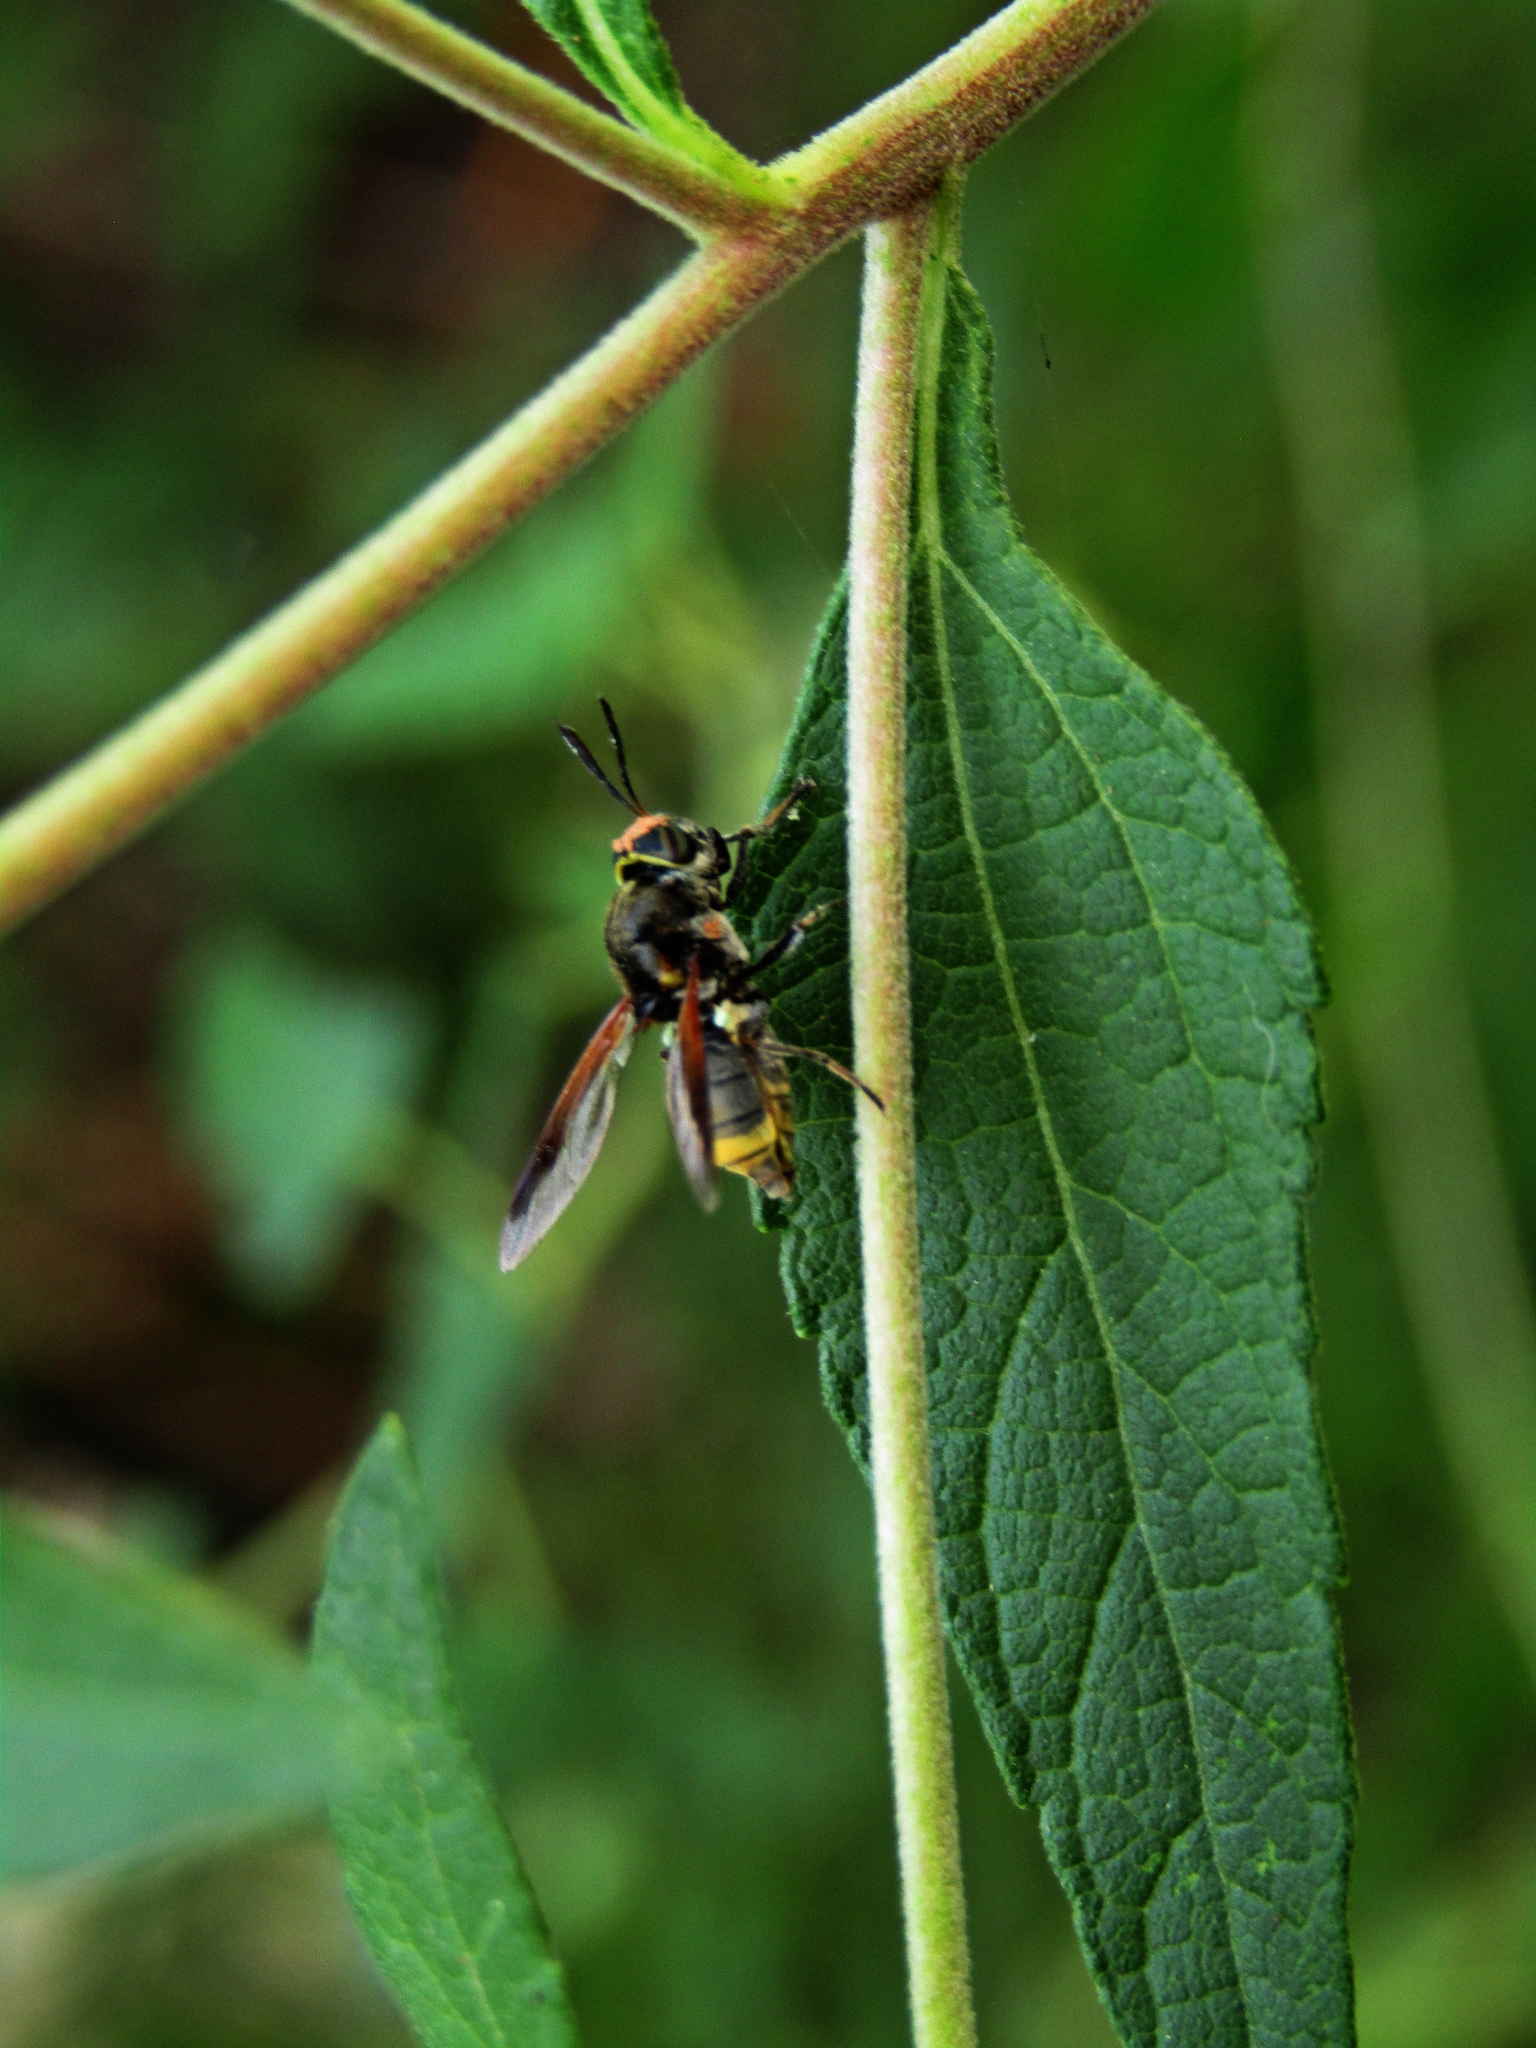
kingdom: Animalia
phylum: Arthropoda
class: Insecta
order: Diptera
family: Stratiomyidae
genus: Hoplitimyia
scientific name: Hoplitimyia
